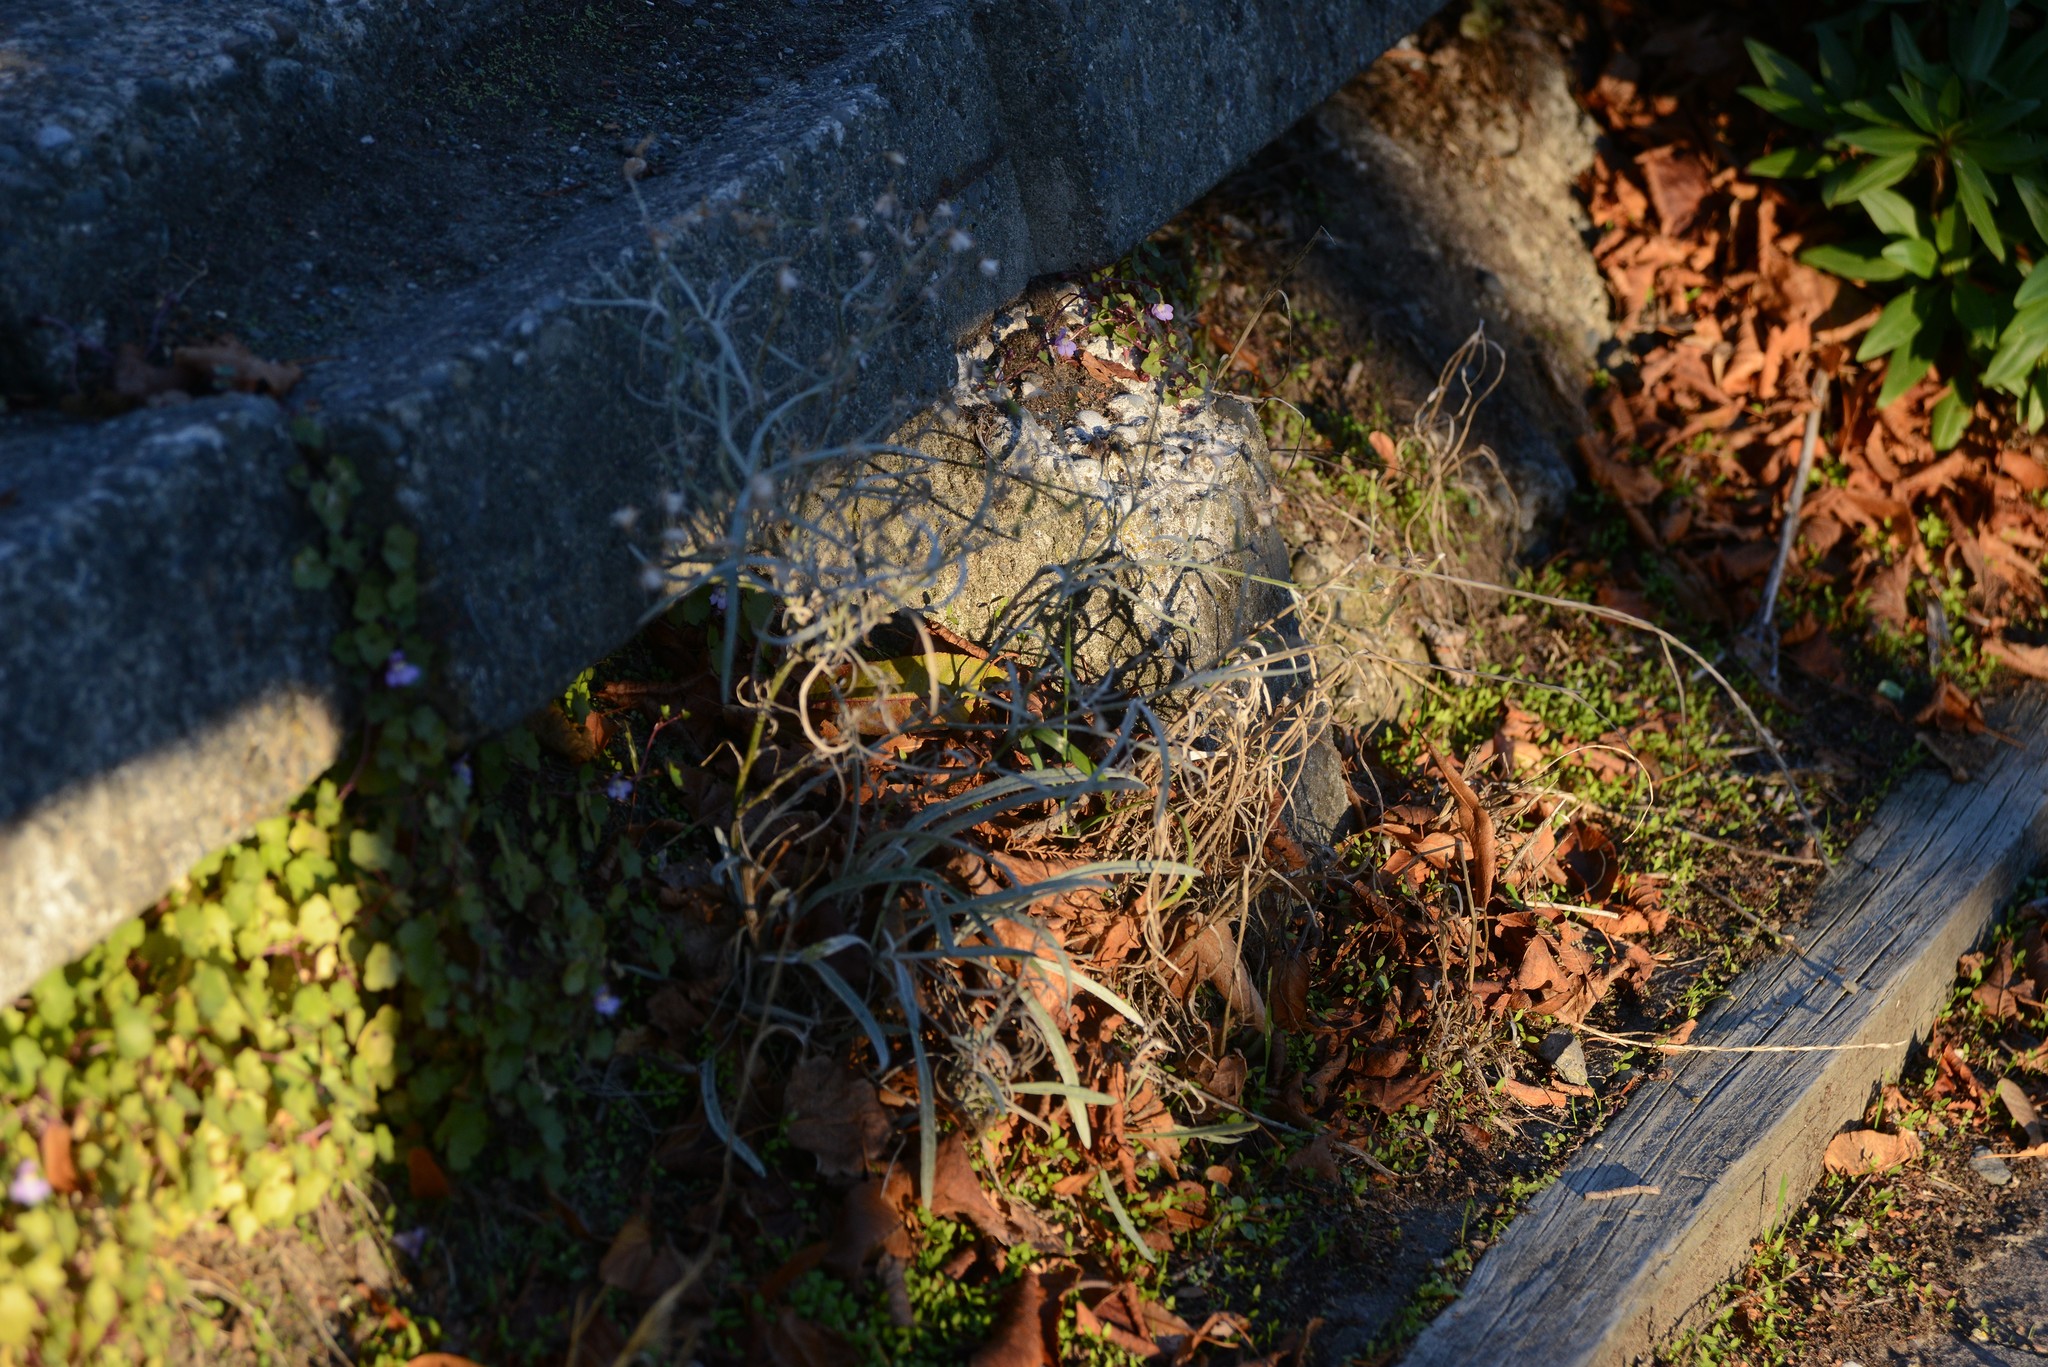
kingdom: Plantae
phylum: Tracheophyta
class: Magnoliopsida
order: Asterales
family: Asteraceae
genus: Senecio
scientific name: Senecio quadridentatus
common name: Cotton fireweed
